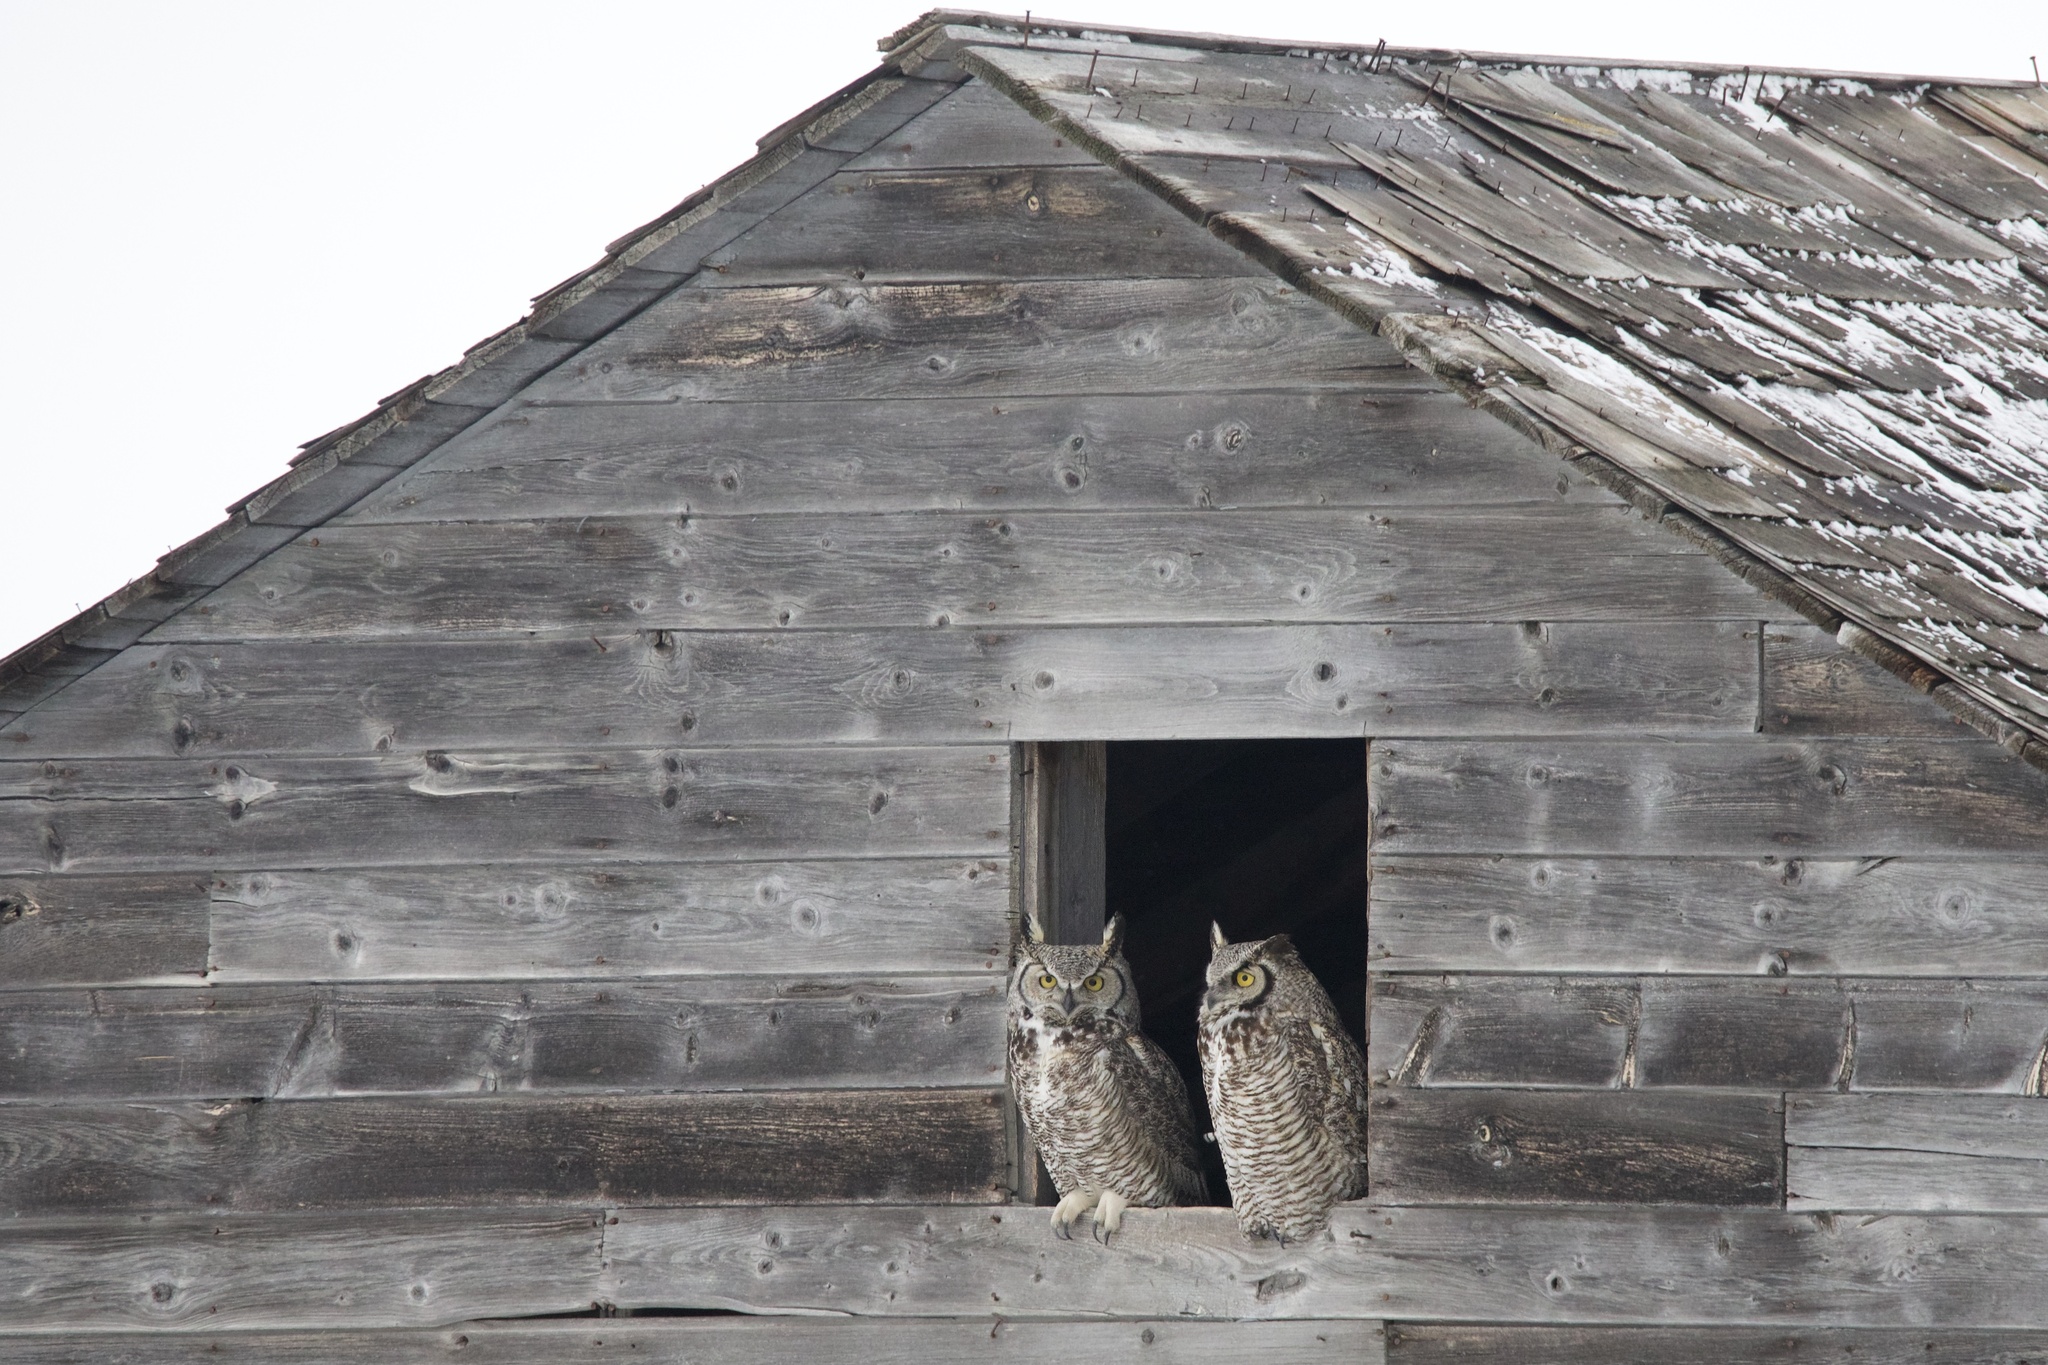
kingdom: Animalia
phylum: Chordata
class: Aves
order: Strigiformes
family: Strigidae
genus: Bubo
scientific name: Bubo virginianus
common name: Great horned owl
